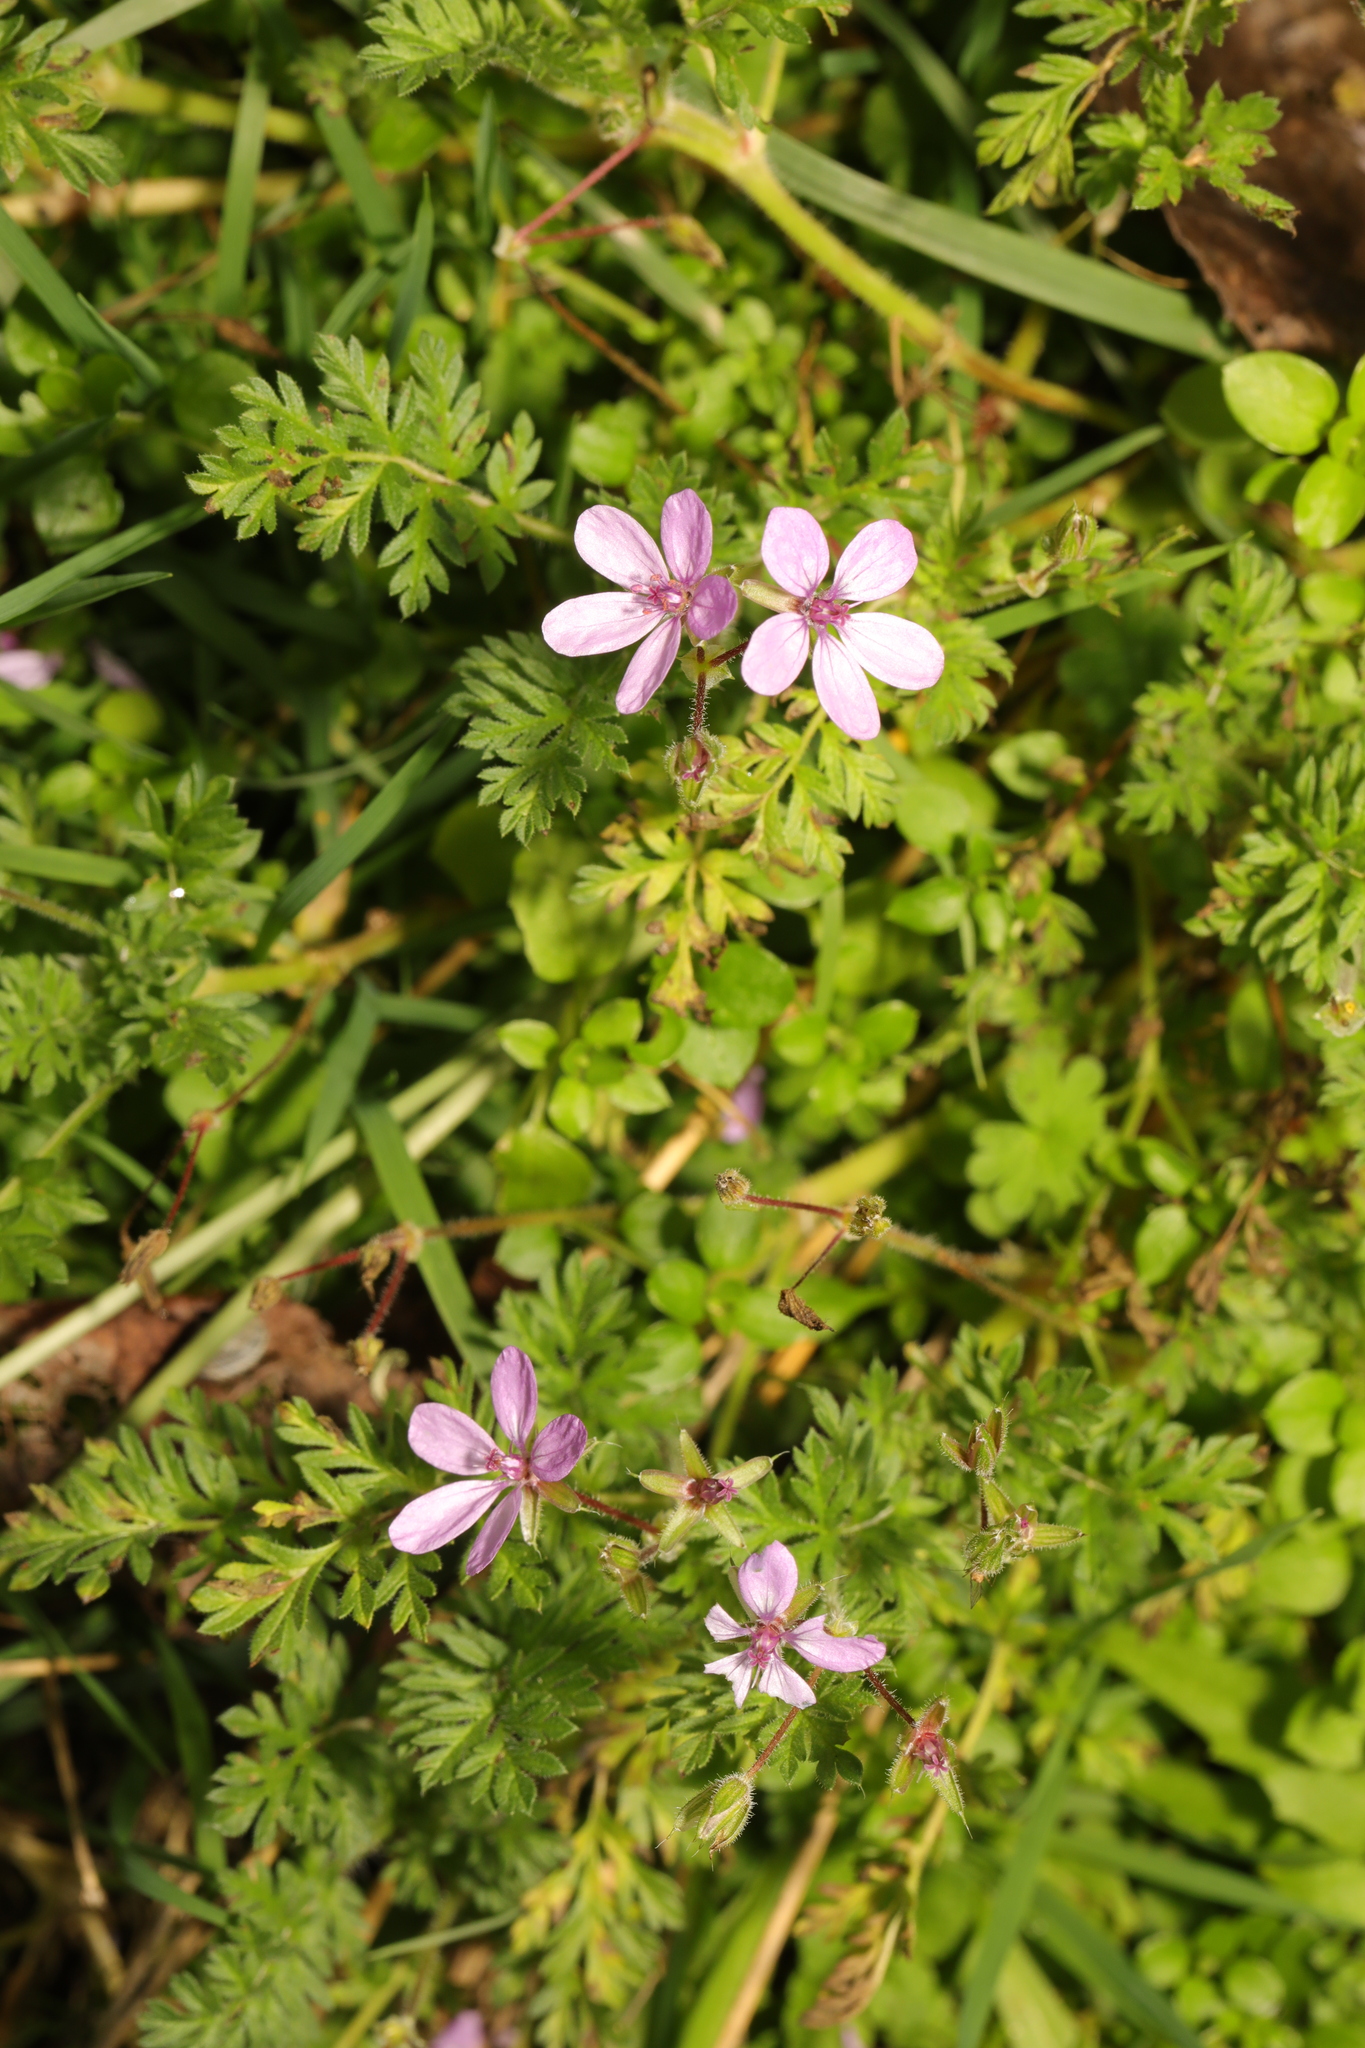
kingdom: Plantae
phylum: Tracheophyta
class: Magnoliopsida
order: Geraniales
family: Geraniaceae
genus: Erodium
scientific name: Erodium cicutarium
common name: Common stork's-bill
